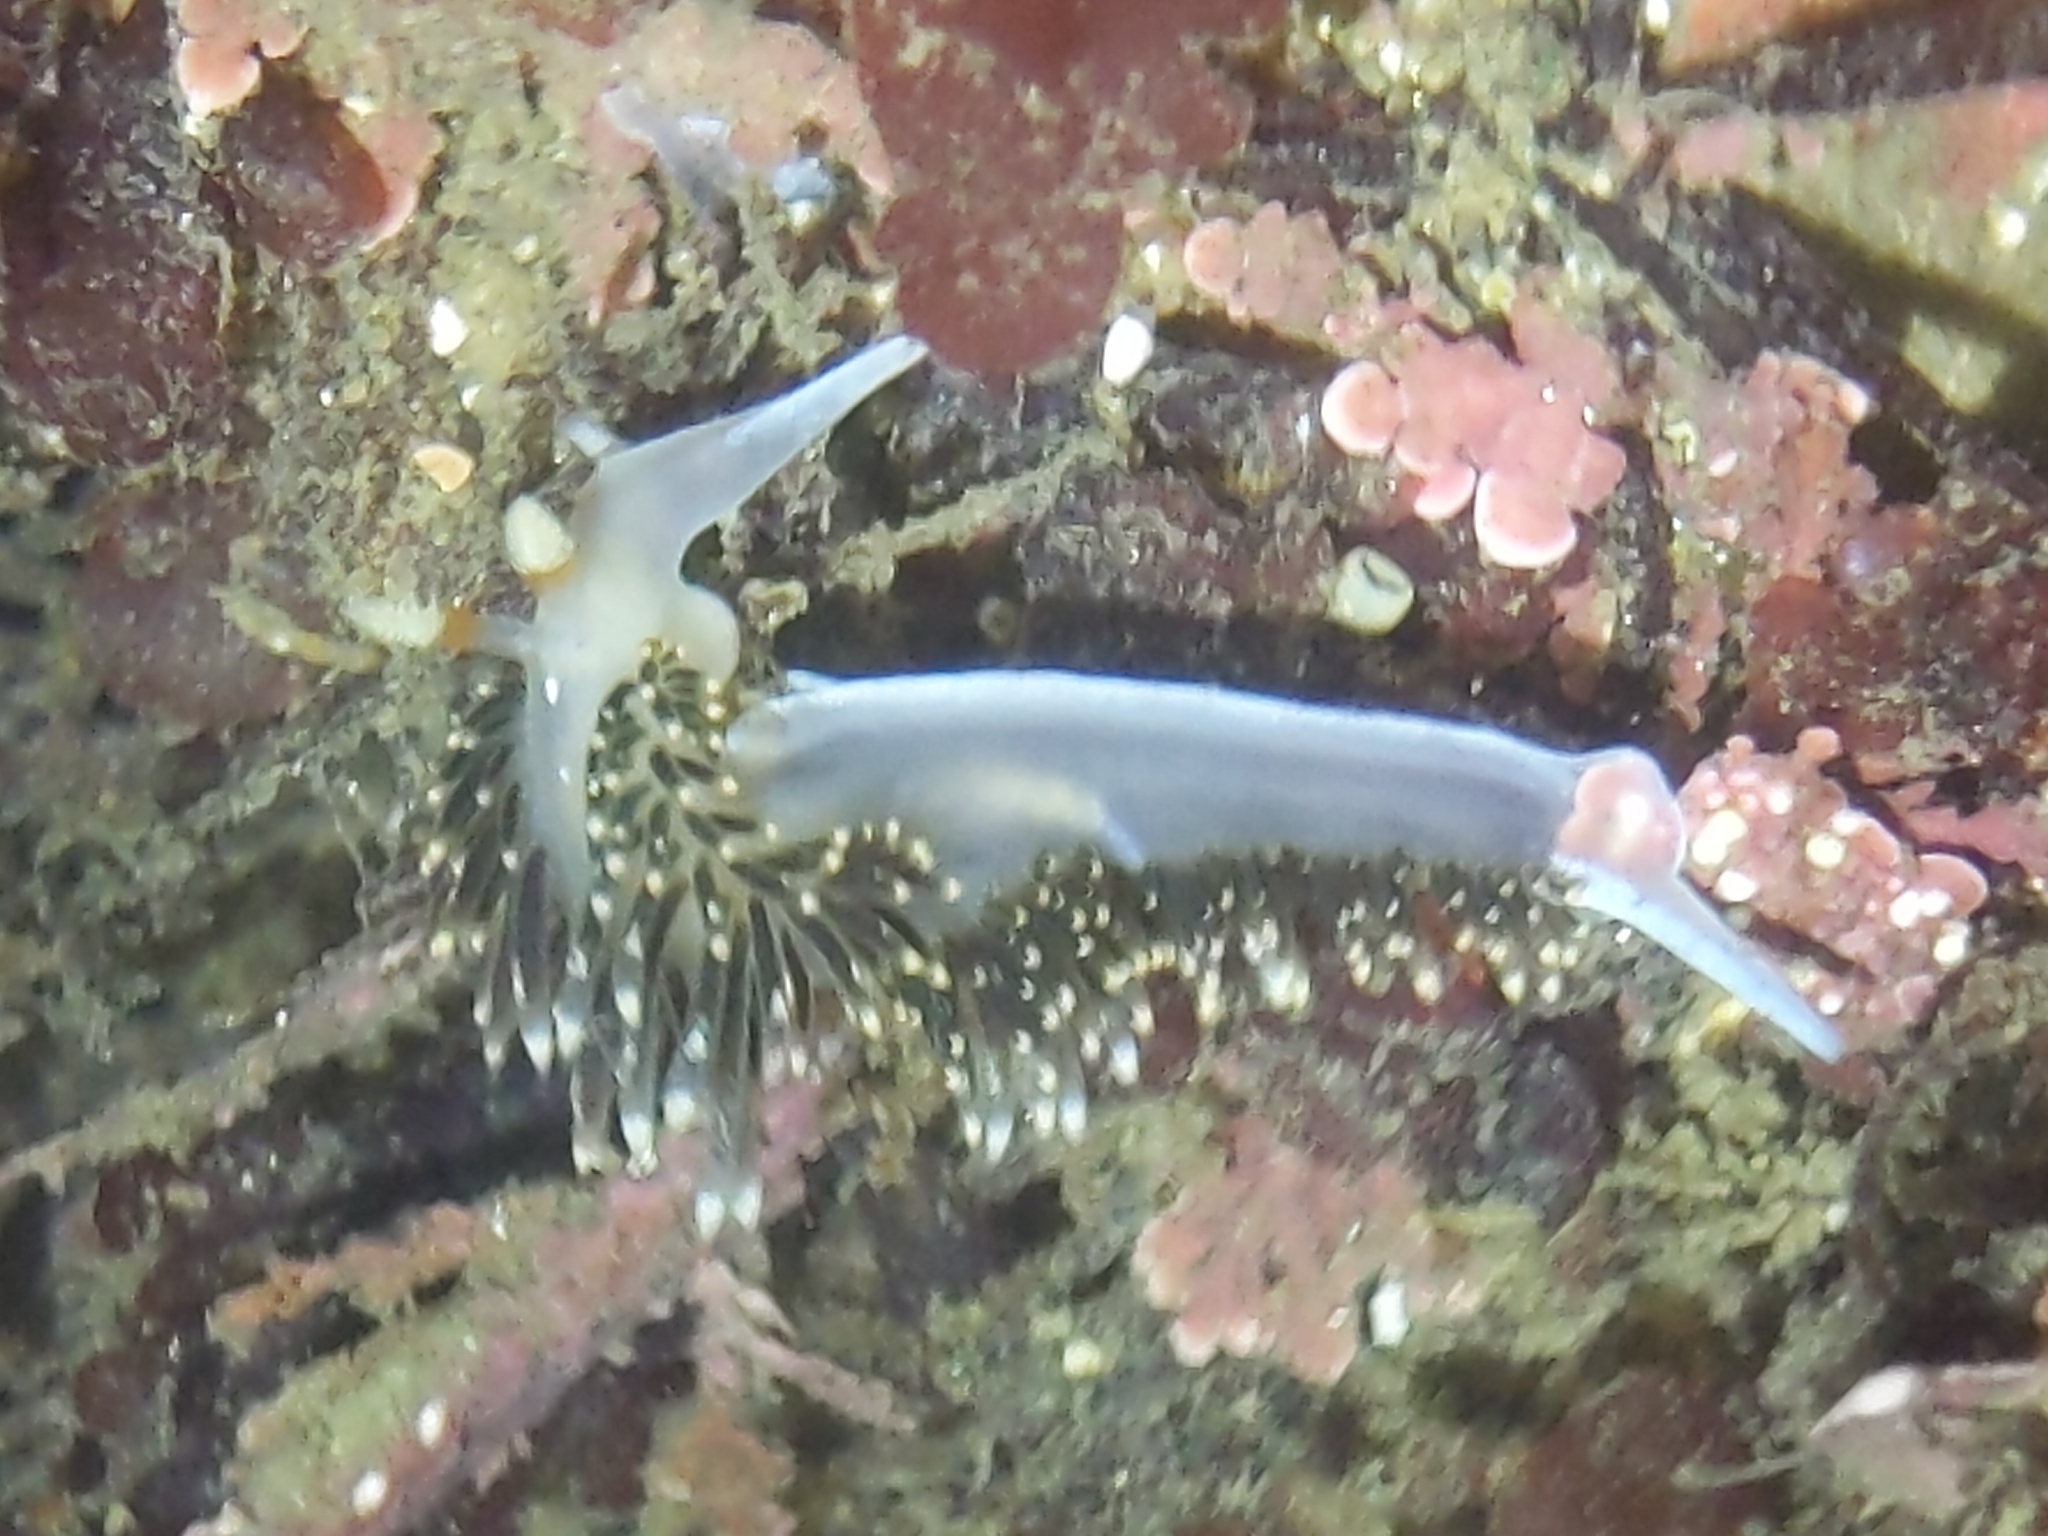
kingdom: Animalia
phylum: Mollusca
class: Gastropoda
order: Nudibranchia
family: Facelinidae
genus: Phidiana
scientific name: Phidiana hiltoni
